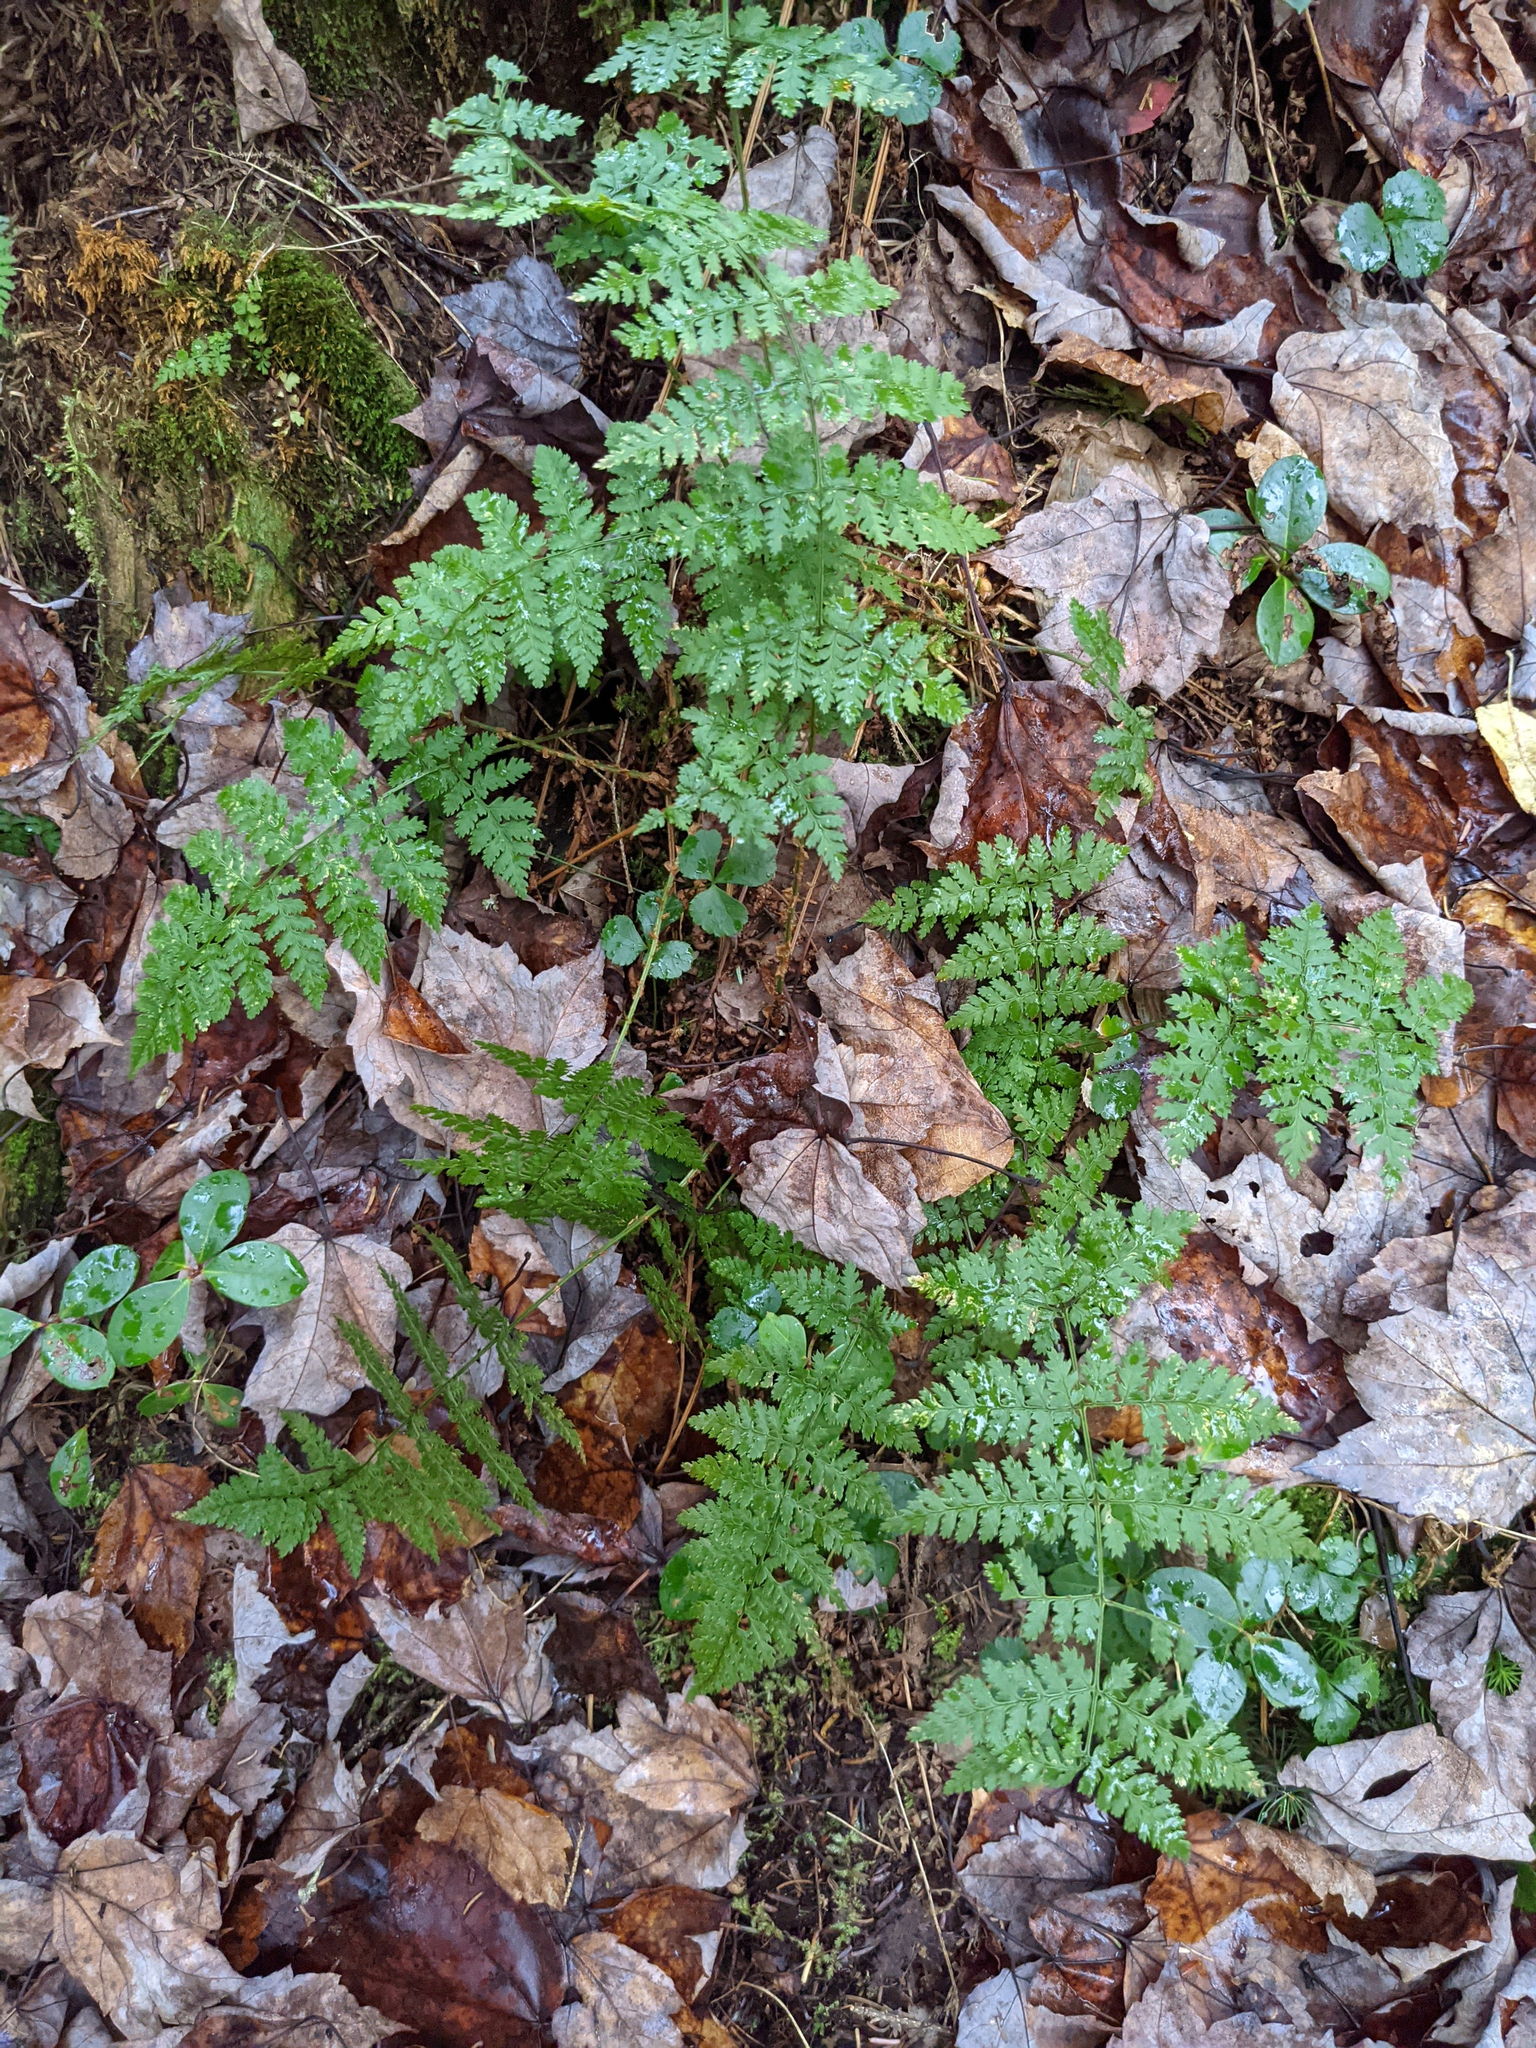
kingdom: Plantae
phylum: Tracheophyta
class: Polypodiopsida
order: Polypodiales
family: Dryopteridaceae
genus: Dryopteris
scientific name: Dryopteris intermedia
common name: Evergreen wood fern
